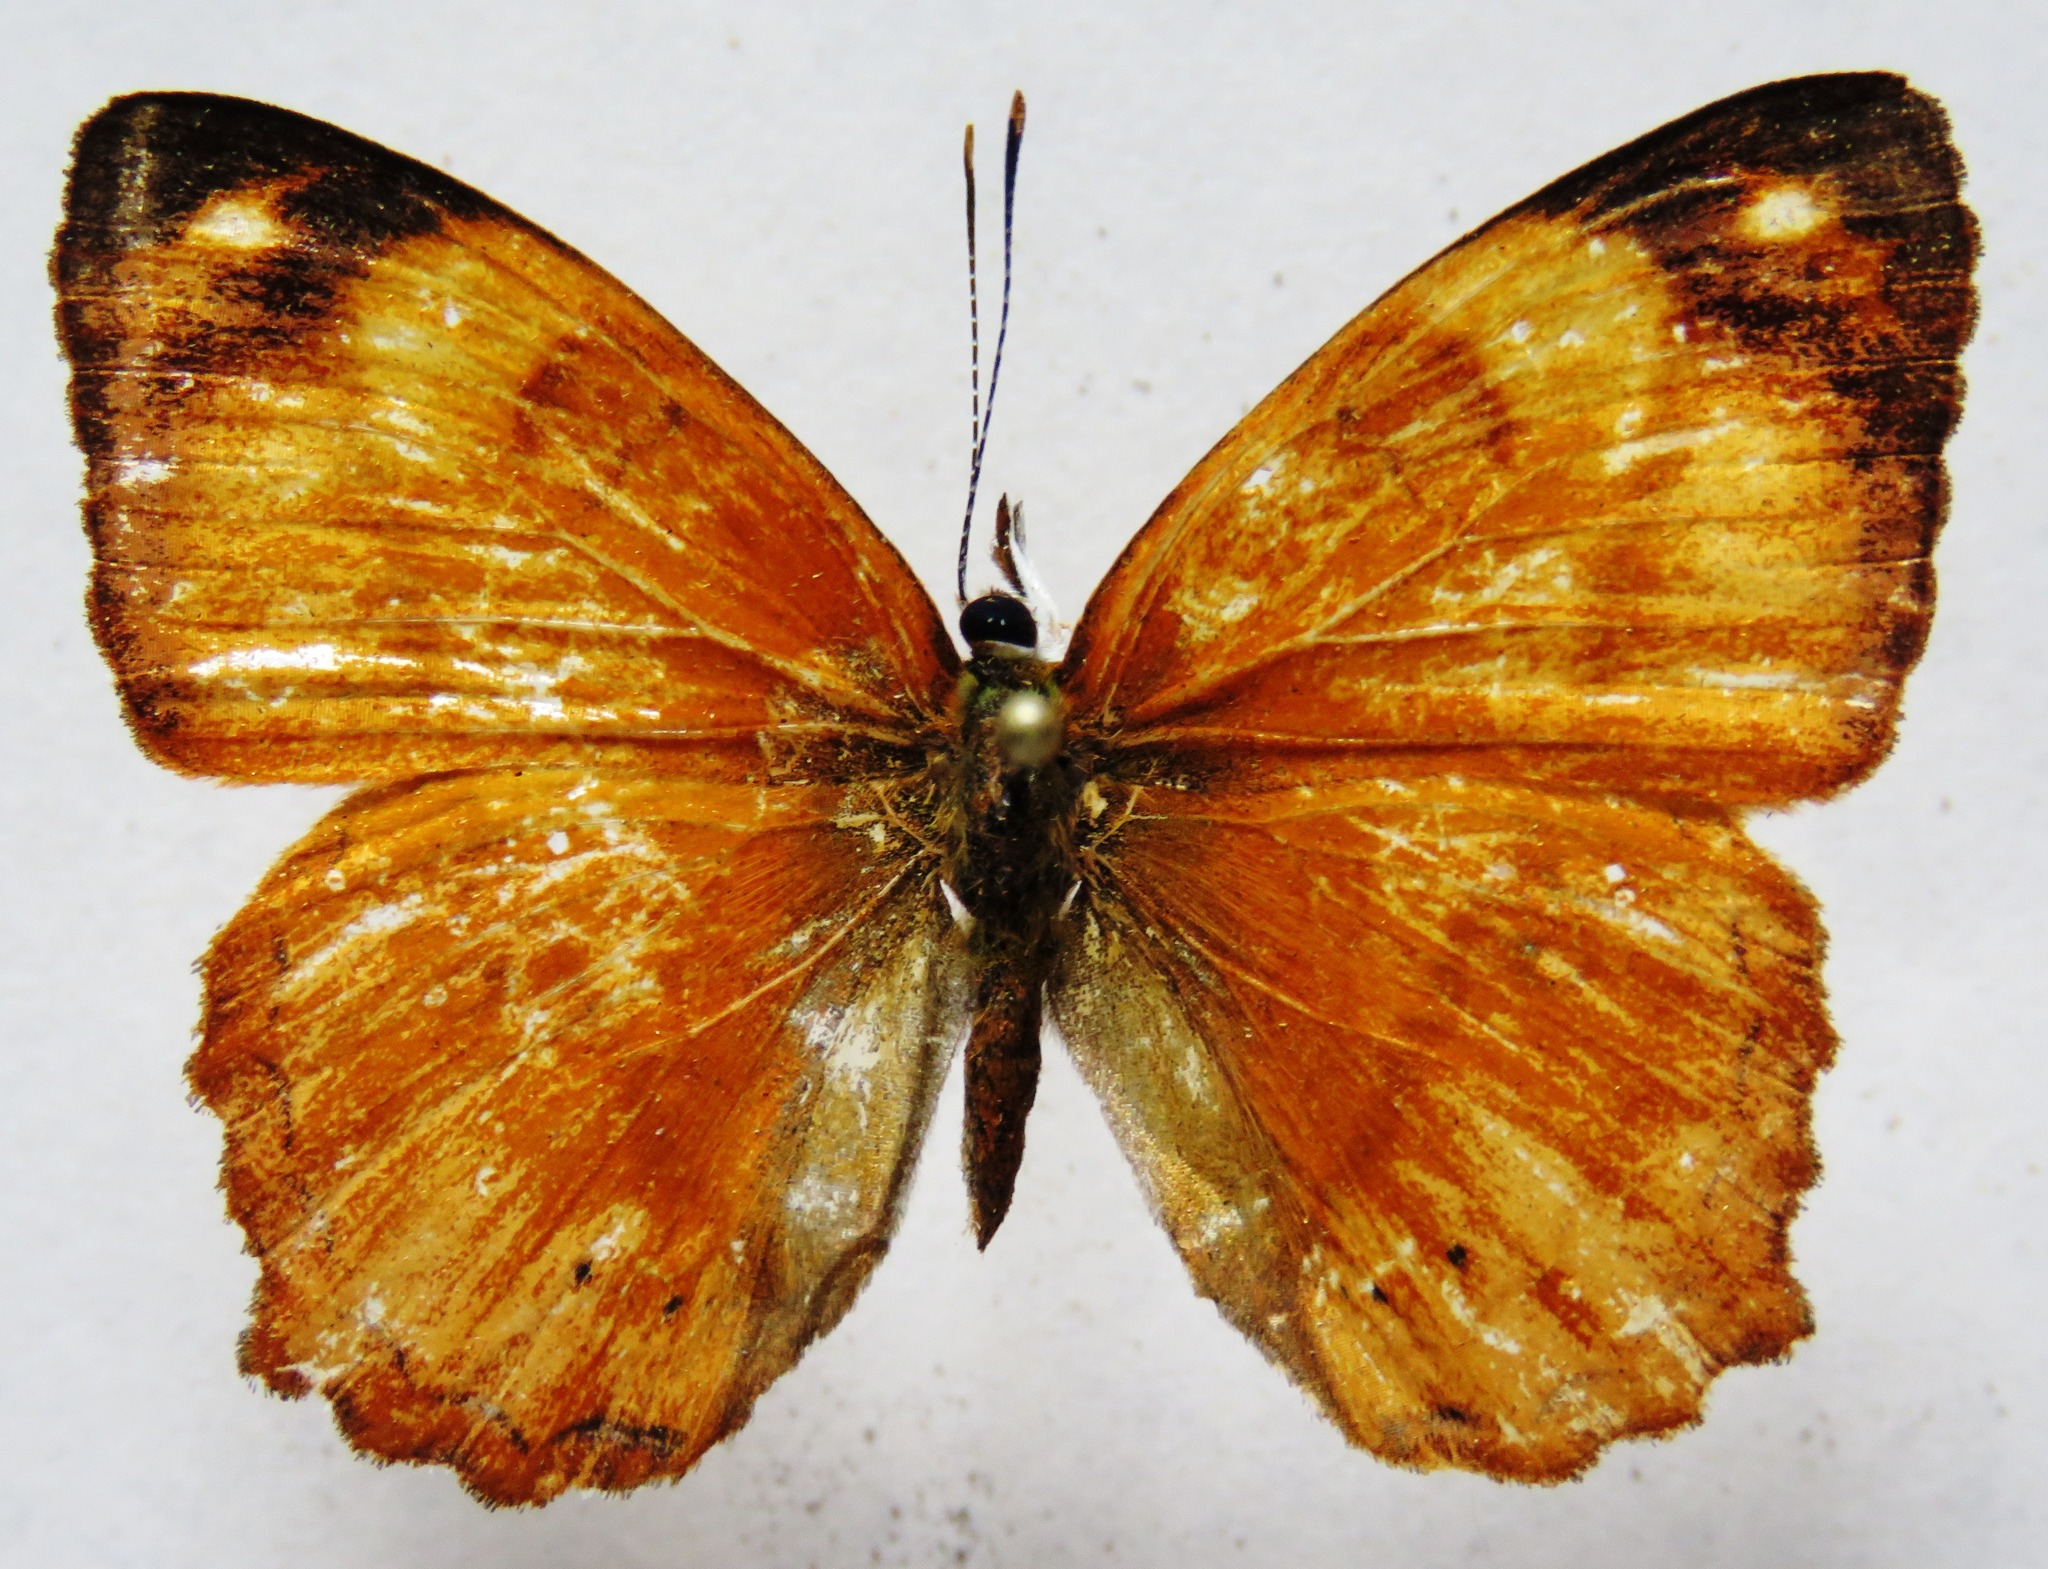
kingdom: Animalia
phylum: Arthropoda
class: Insecta
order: Lepidoptera
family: Nymphalidae
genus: Nica
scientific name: Nica flavilla
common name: Mandarin nica
